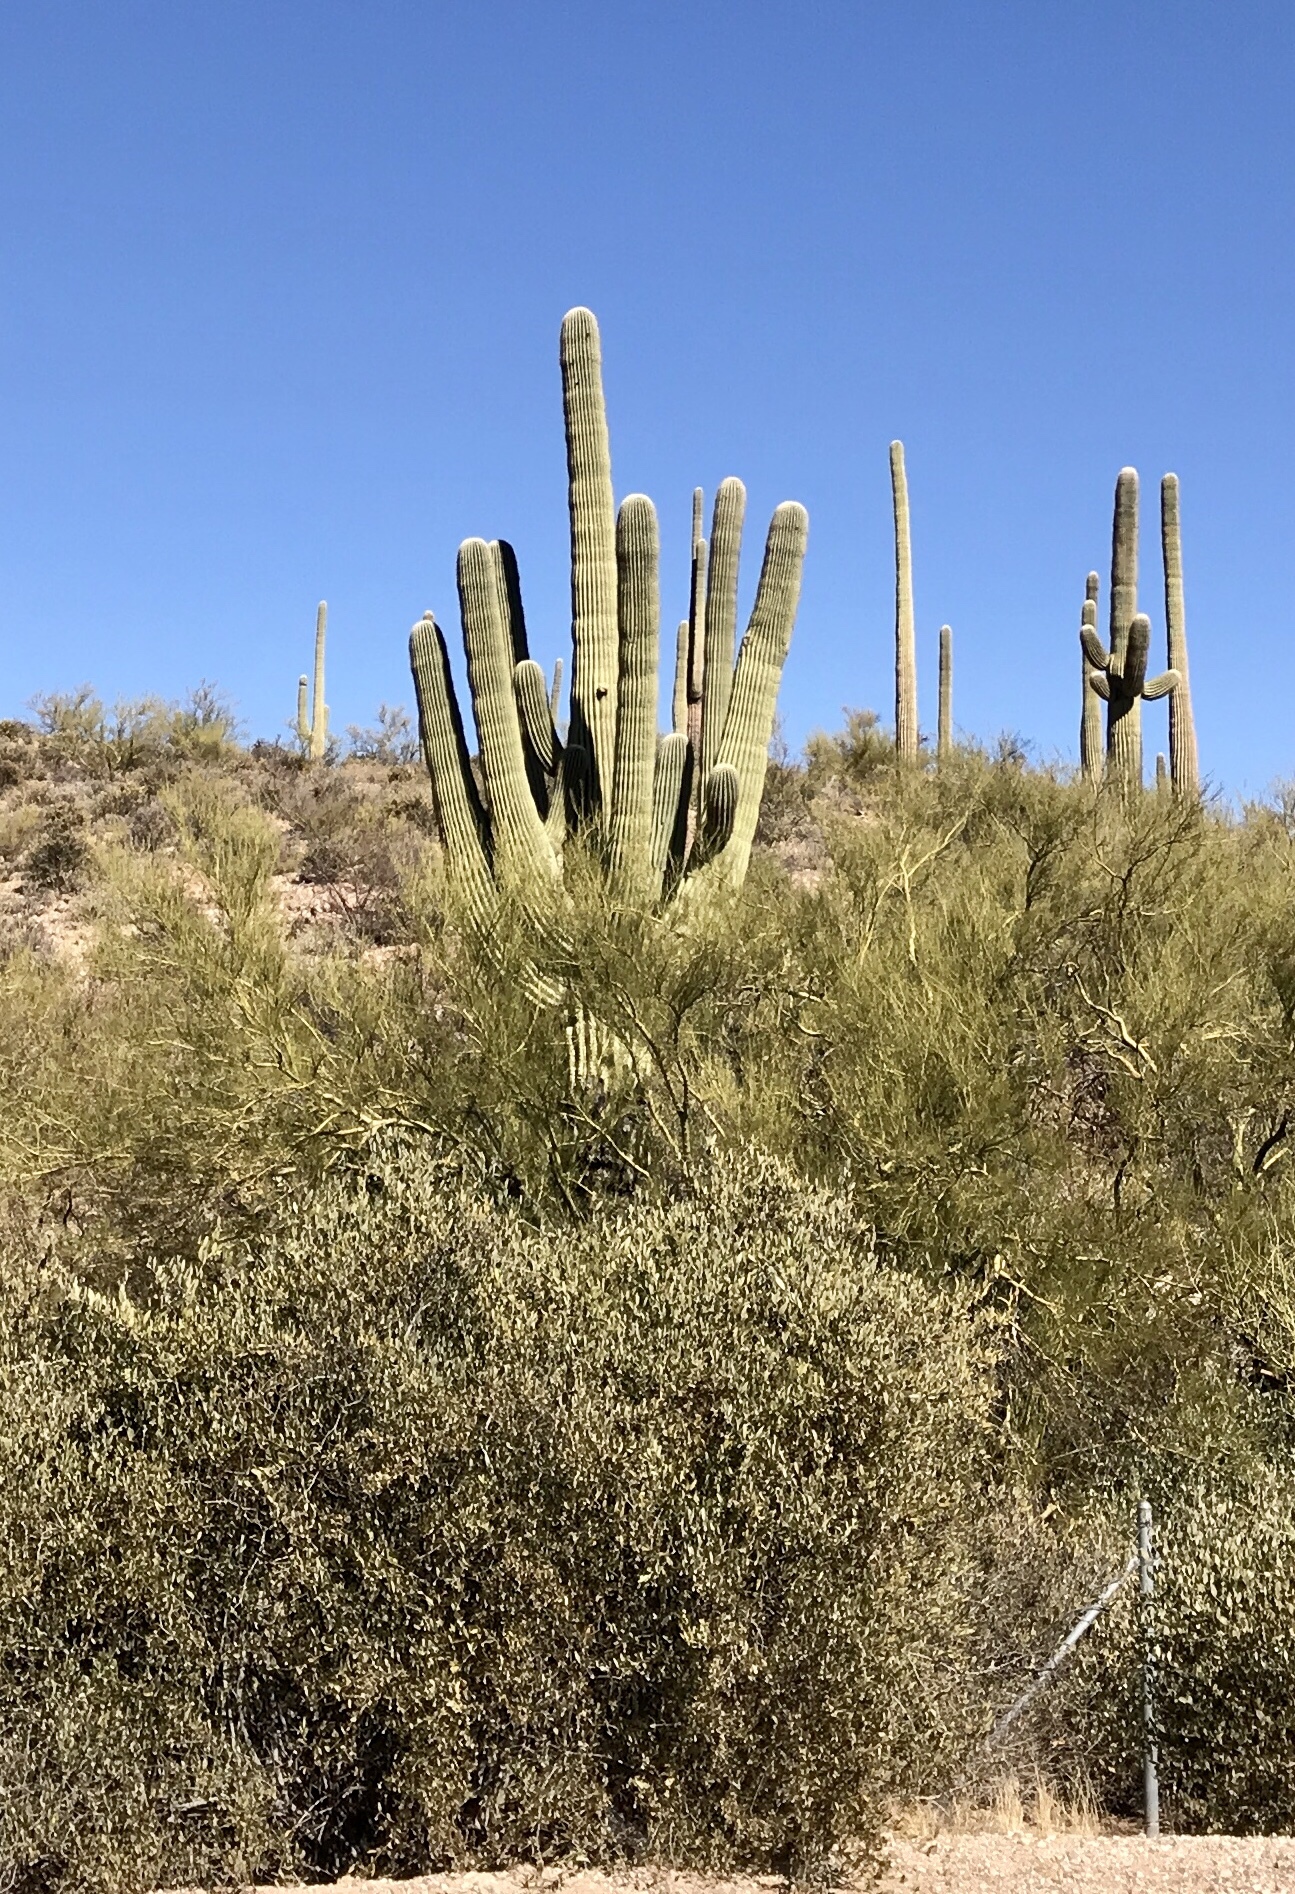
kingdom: Plantae
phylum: Tracheophyta
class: Magnoliopsida
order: Caryophyllales
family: Cactaceae
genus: Carnegiea
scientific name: Carnegiea gigantea
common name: Saguaro
